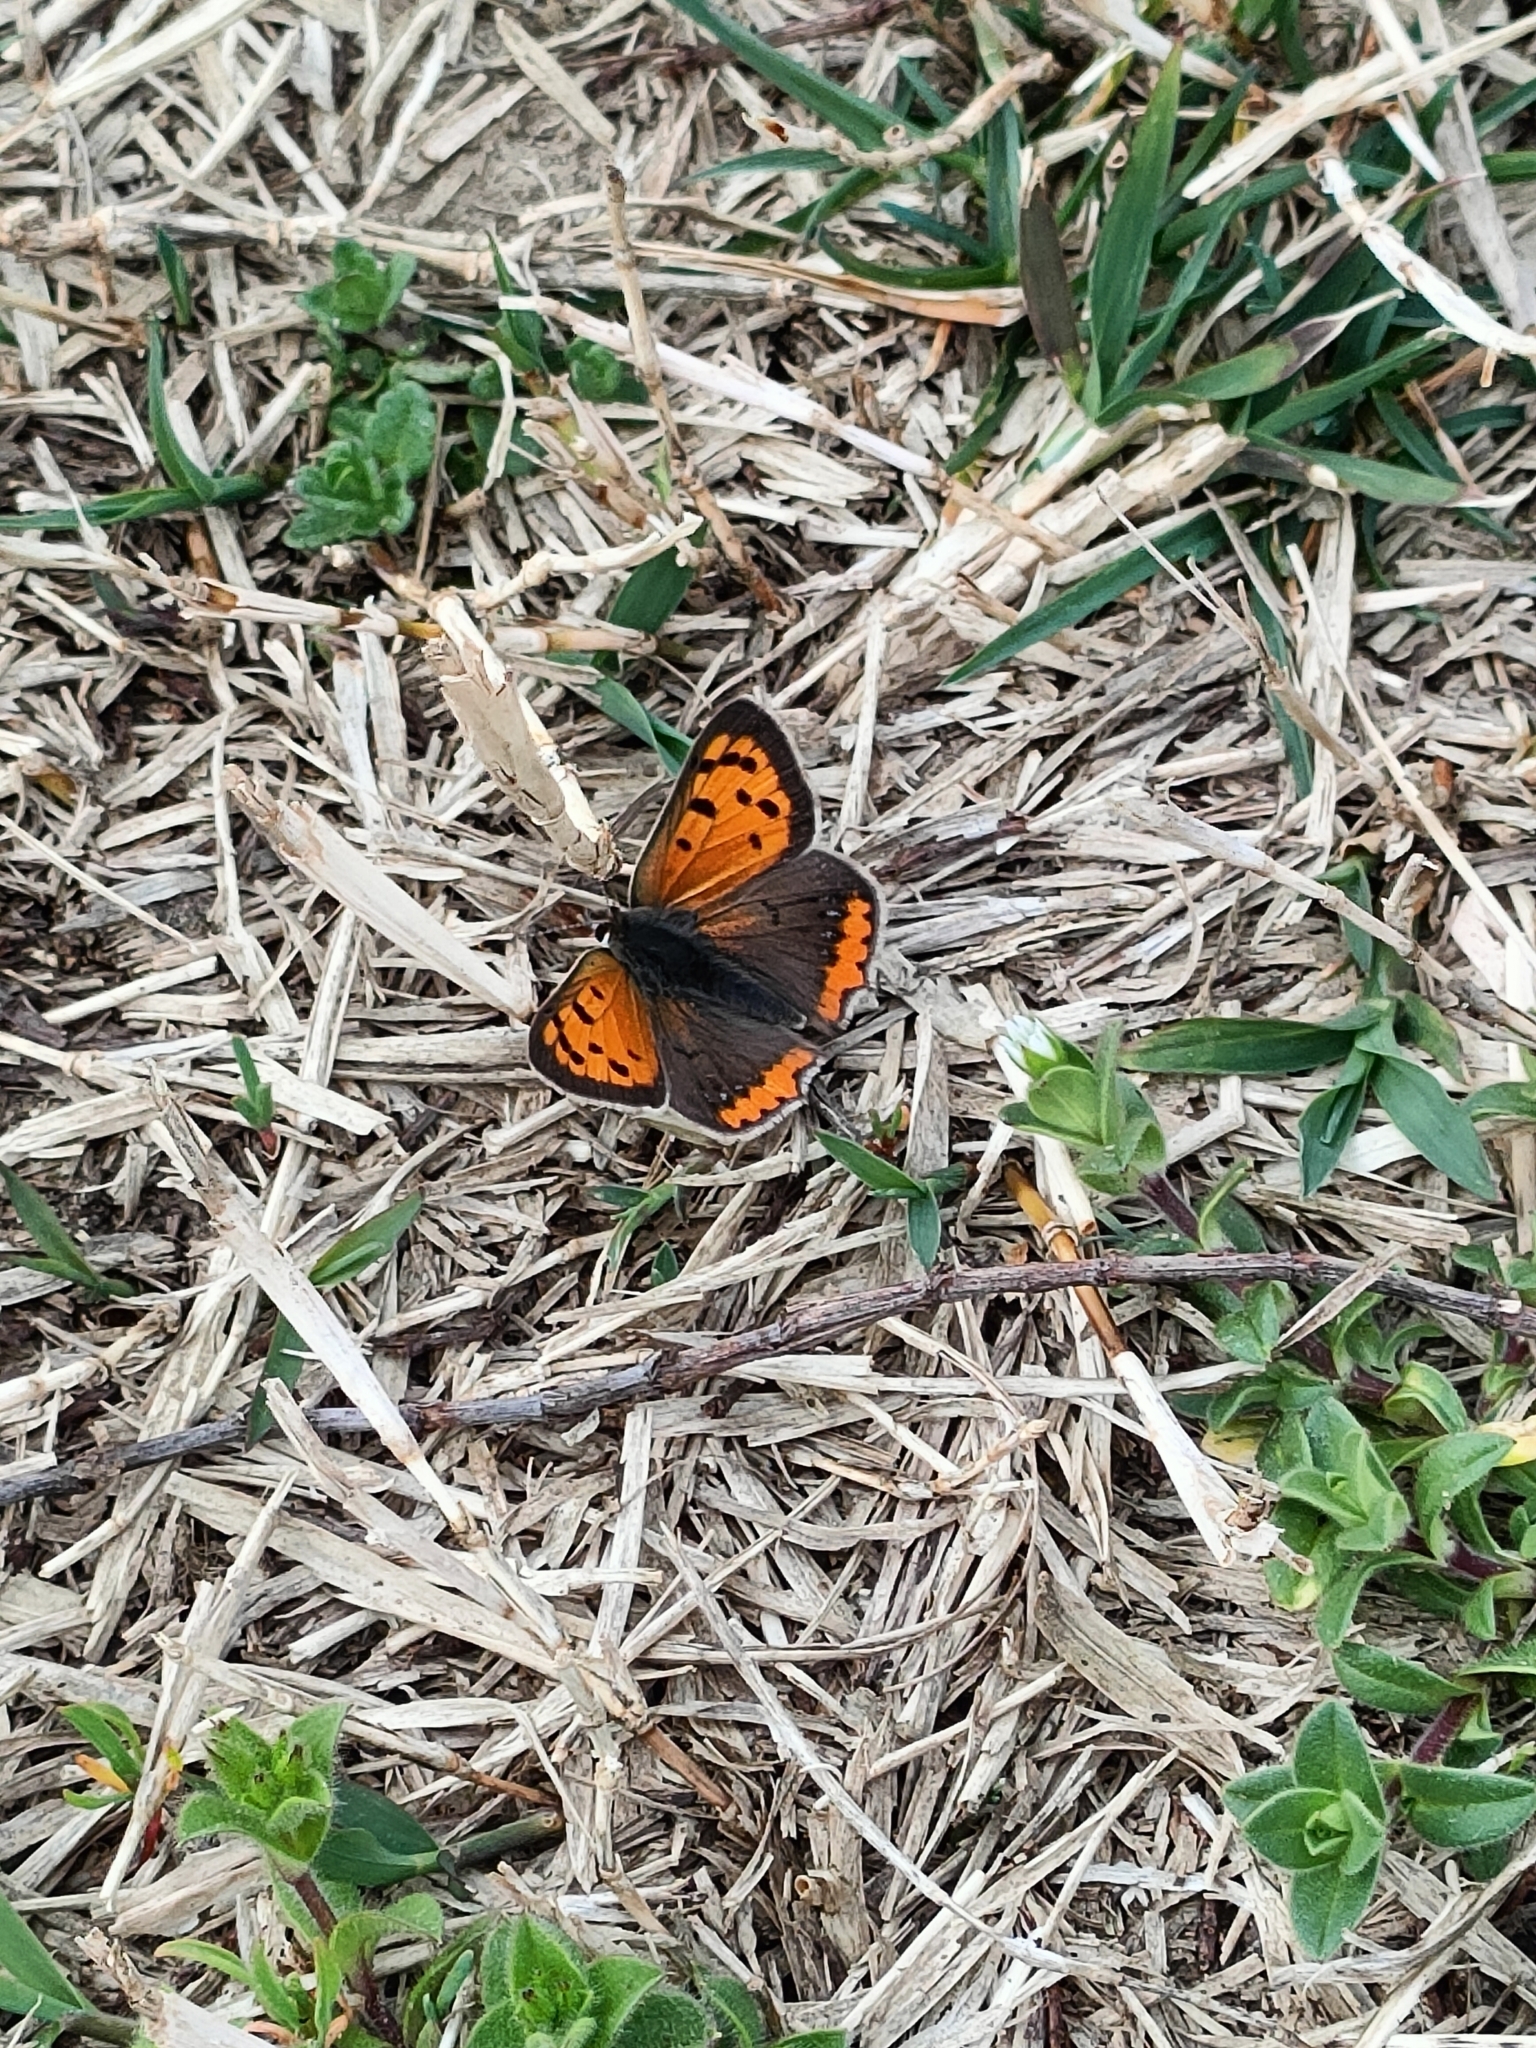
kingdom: Animalia
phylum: Arthropoda
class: Insecta
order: Lepidoptera
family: Lycaenidae
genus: Lycaena
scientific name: Lycaena phlaeas
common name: Small copper
